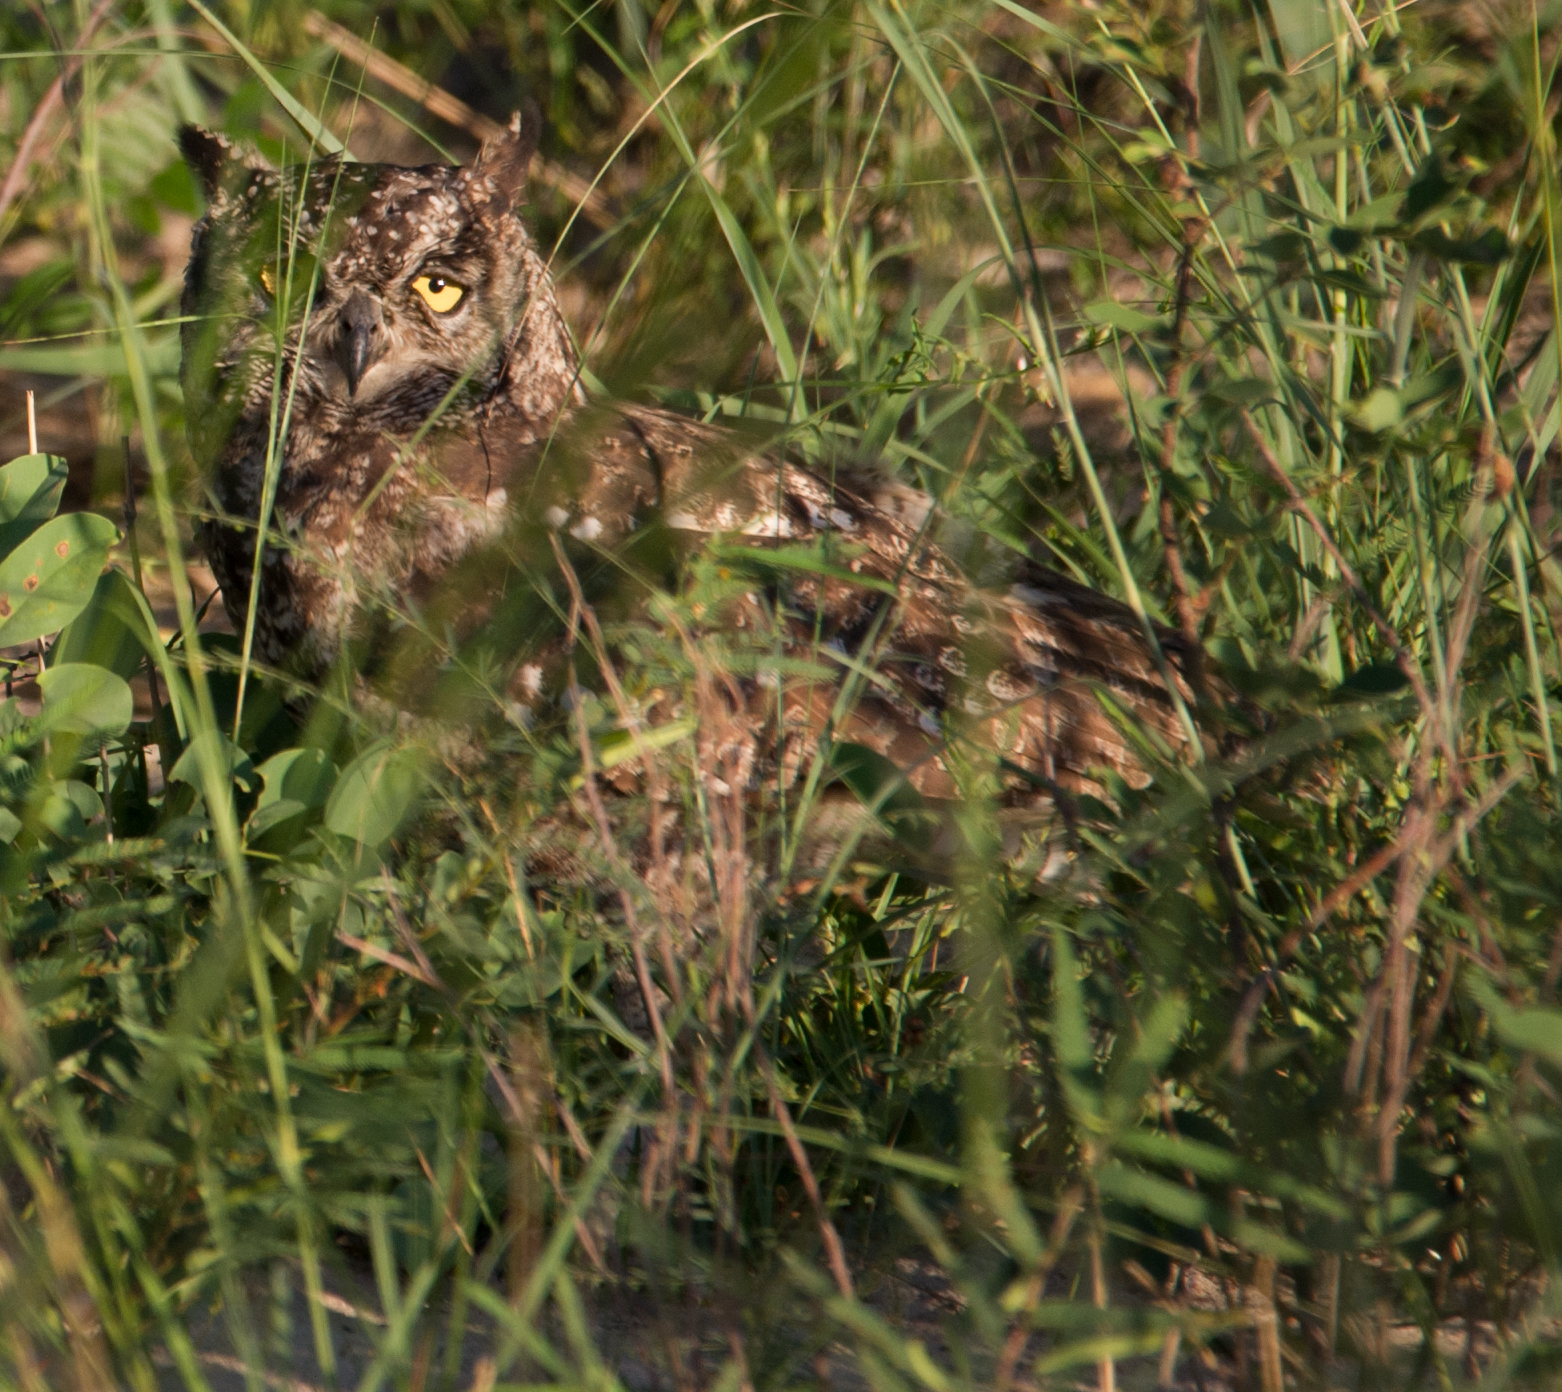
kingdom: Animalia
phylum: Chordata
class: Aves
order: Strigiformes
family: Strigidae
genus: Bubo
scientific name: Bubo africanus
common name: Spotted eagle-owl
